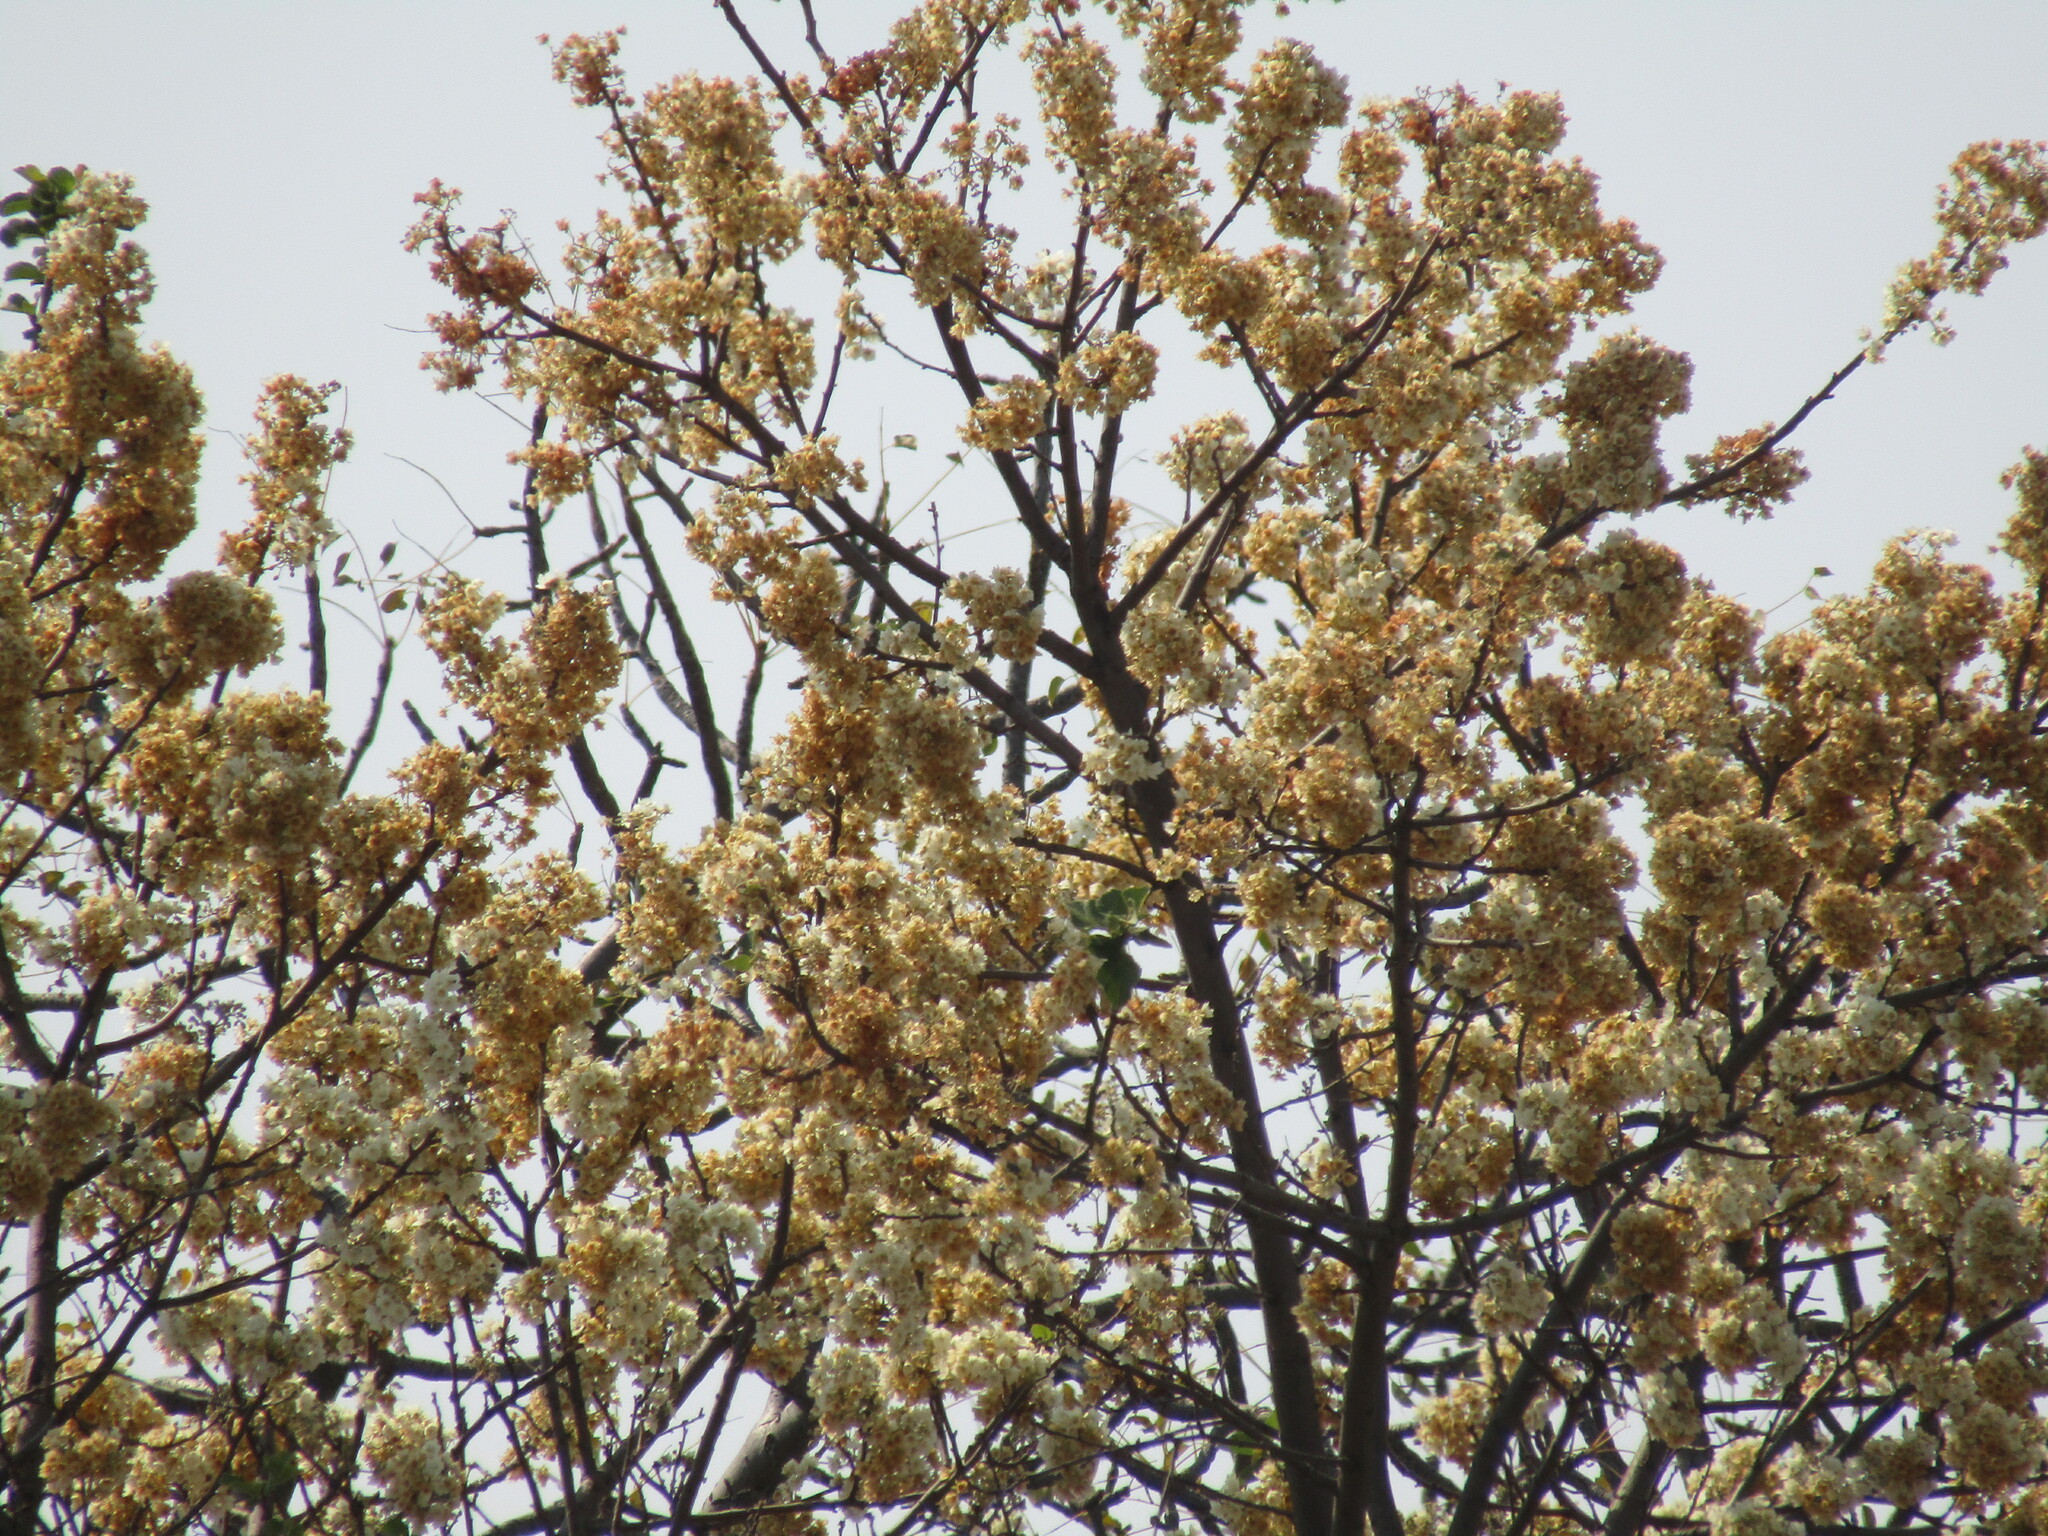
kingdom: Plantae
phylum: Tracheophyta
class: Magnoliopsida
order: Malvales
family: Malvaceae
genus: Dombeya
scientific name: Dombeya rotundifolia
